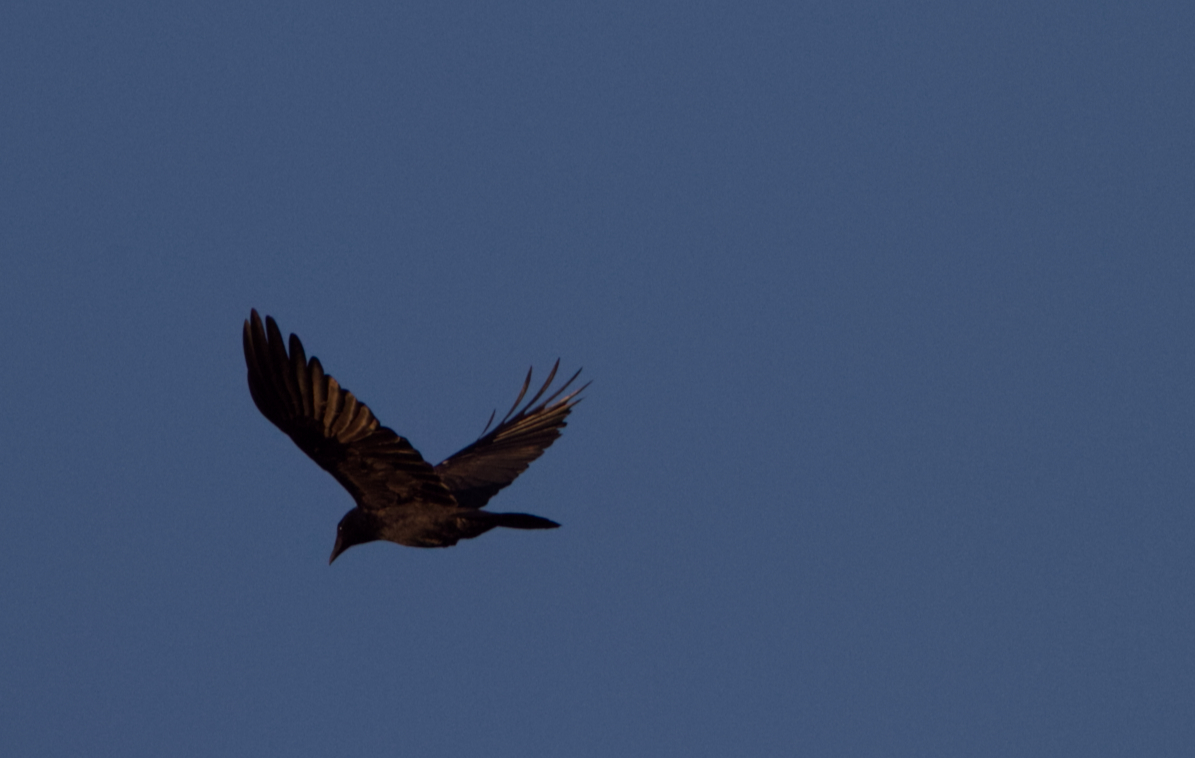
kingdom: Animalia
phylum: Chordata
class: Aves
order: Passeriformes
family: Corvidae
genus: Corvus
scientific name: Corvus ossifragus
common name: Fish crow
